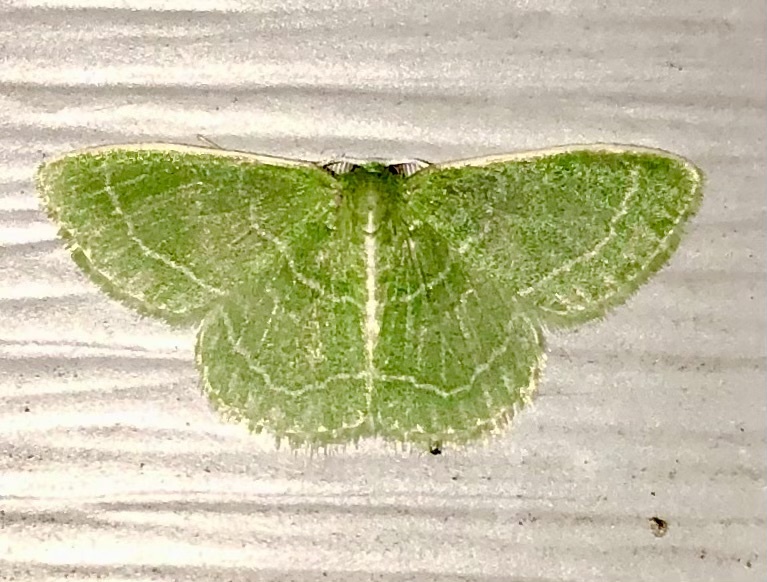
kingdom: Animalia
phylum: Arthropoda
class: Insecta
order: Lepidoptera
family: Geometridae
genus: Synchlora
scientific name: Synchlora aerata
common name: Wavy-lined emerald
